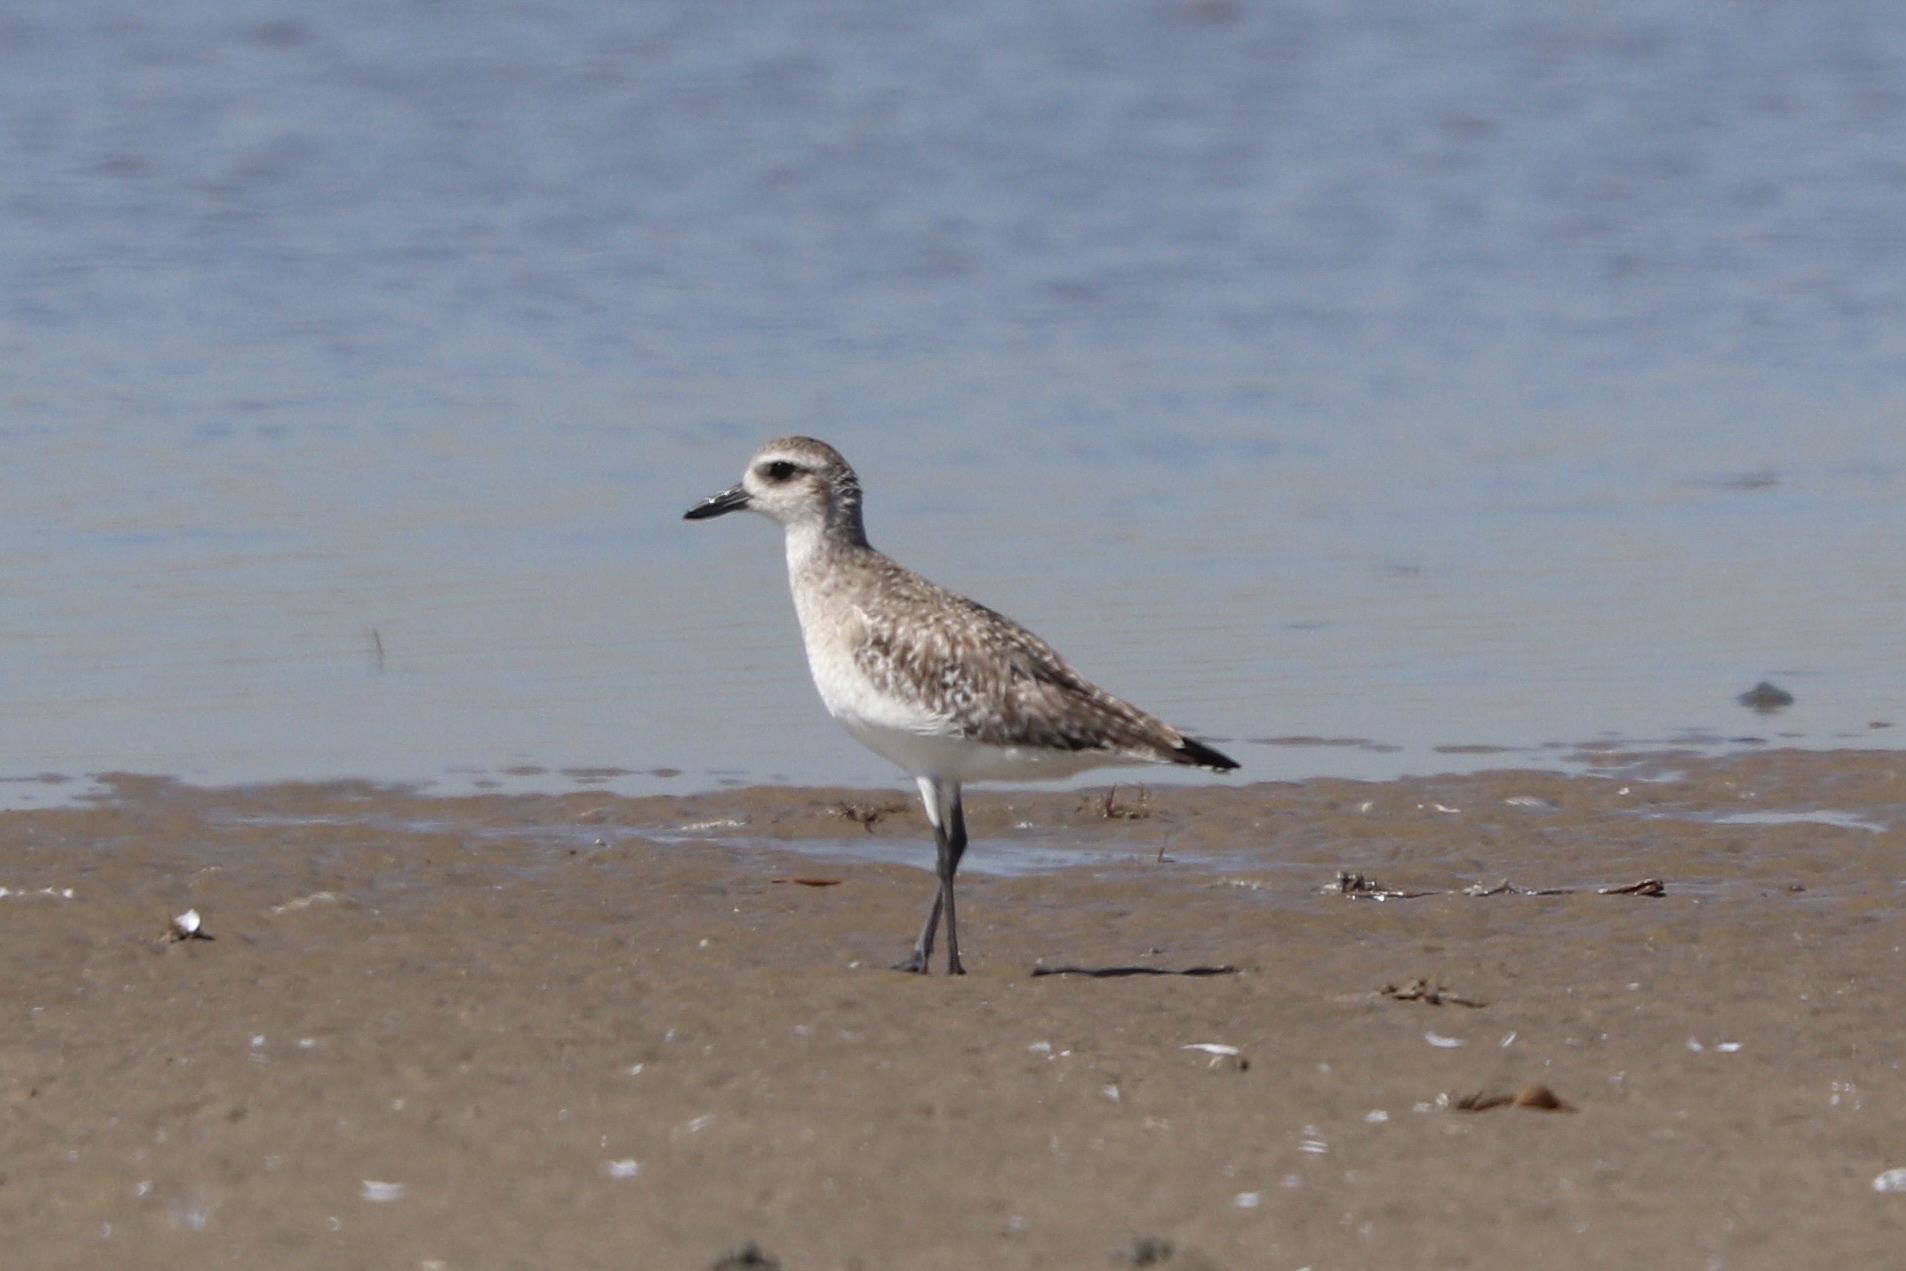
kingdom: Animalia
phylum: Chordata
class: Aves
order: Charadriiformes
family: Charadriidae
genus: Pluvialis
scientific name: Pluvialis squatarola
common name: Grey plover
